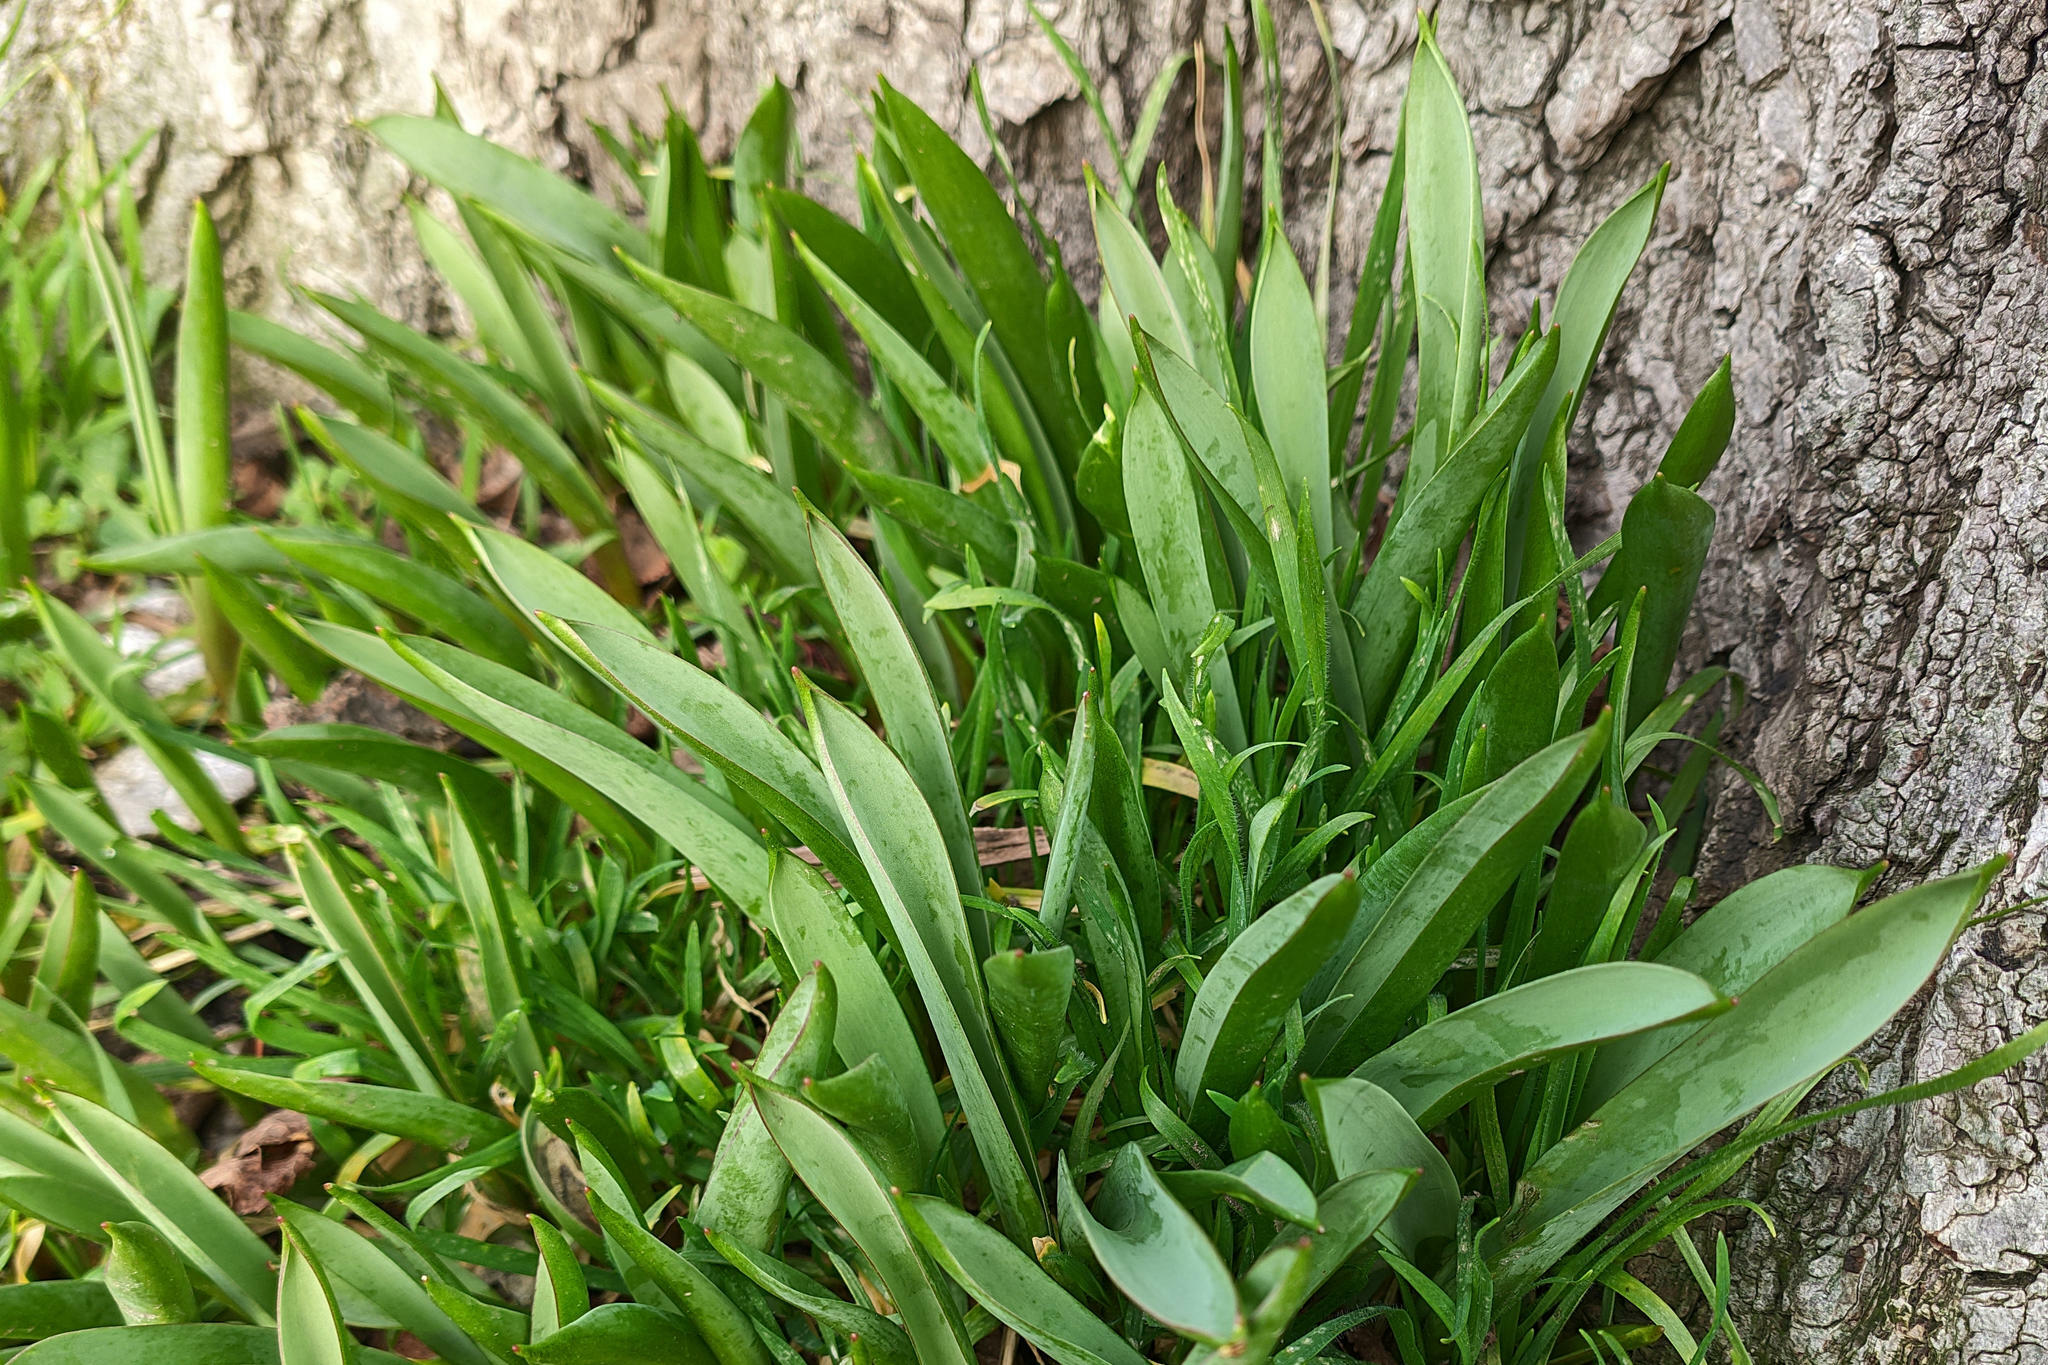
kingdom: Plantae
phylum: Tracheophyta
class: Liliopsida
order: Liliales
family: Liliaceae
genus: Tulipa
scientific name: Tulipa sylvestris
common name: Wild tulip
